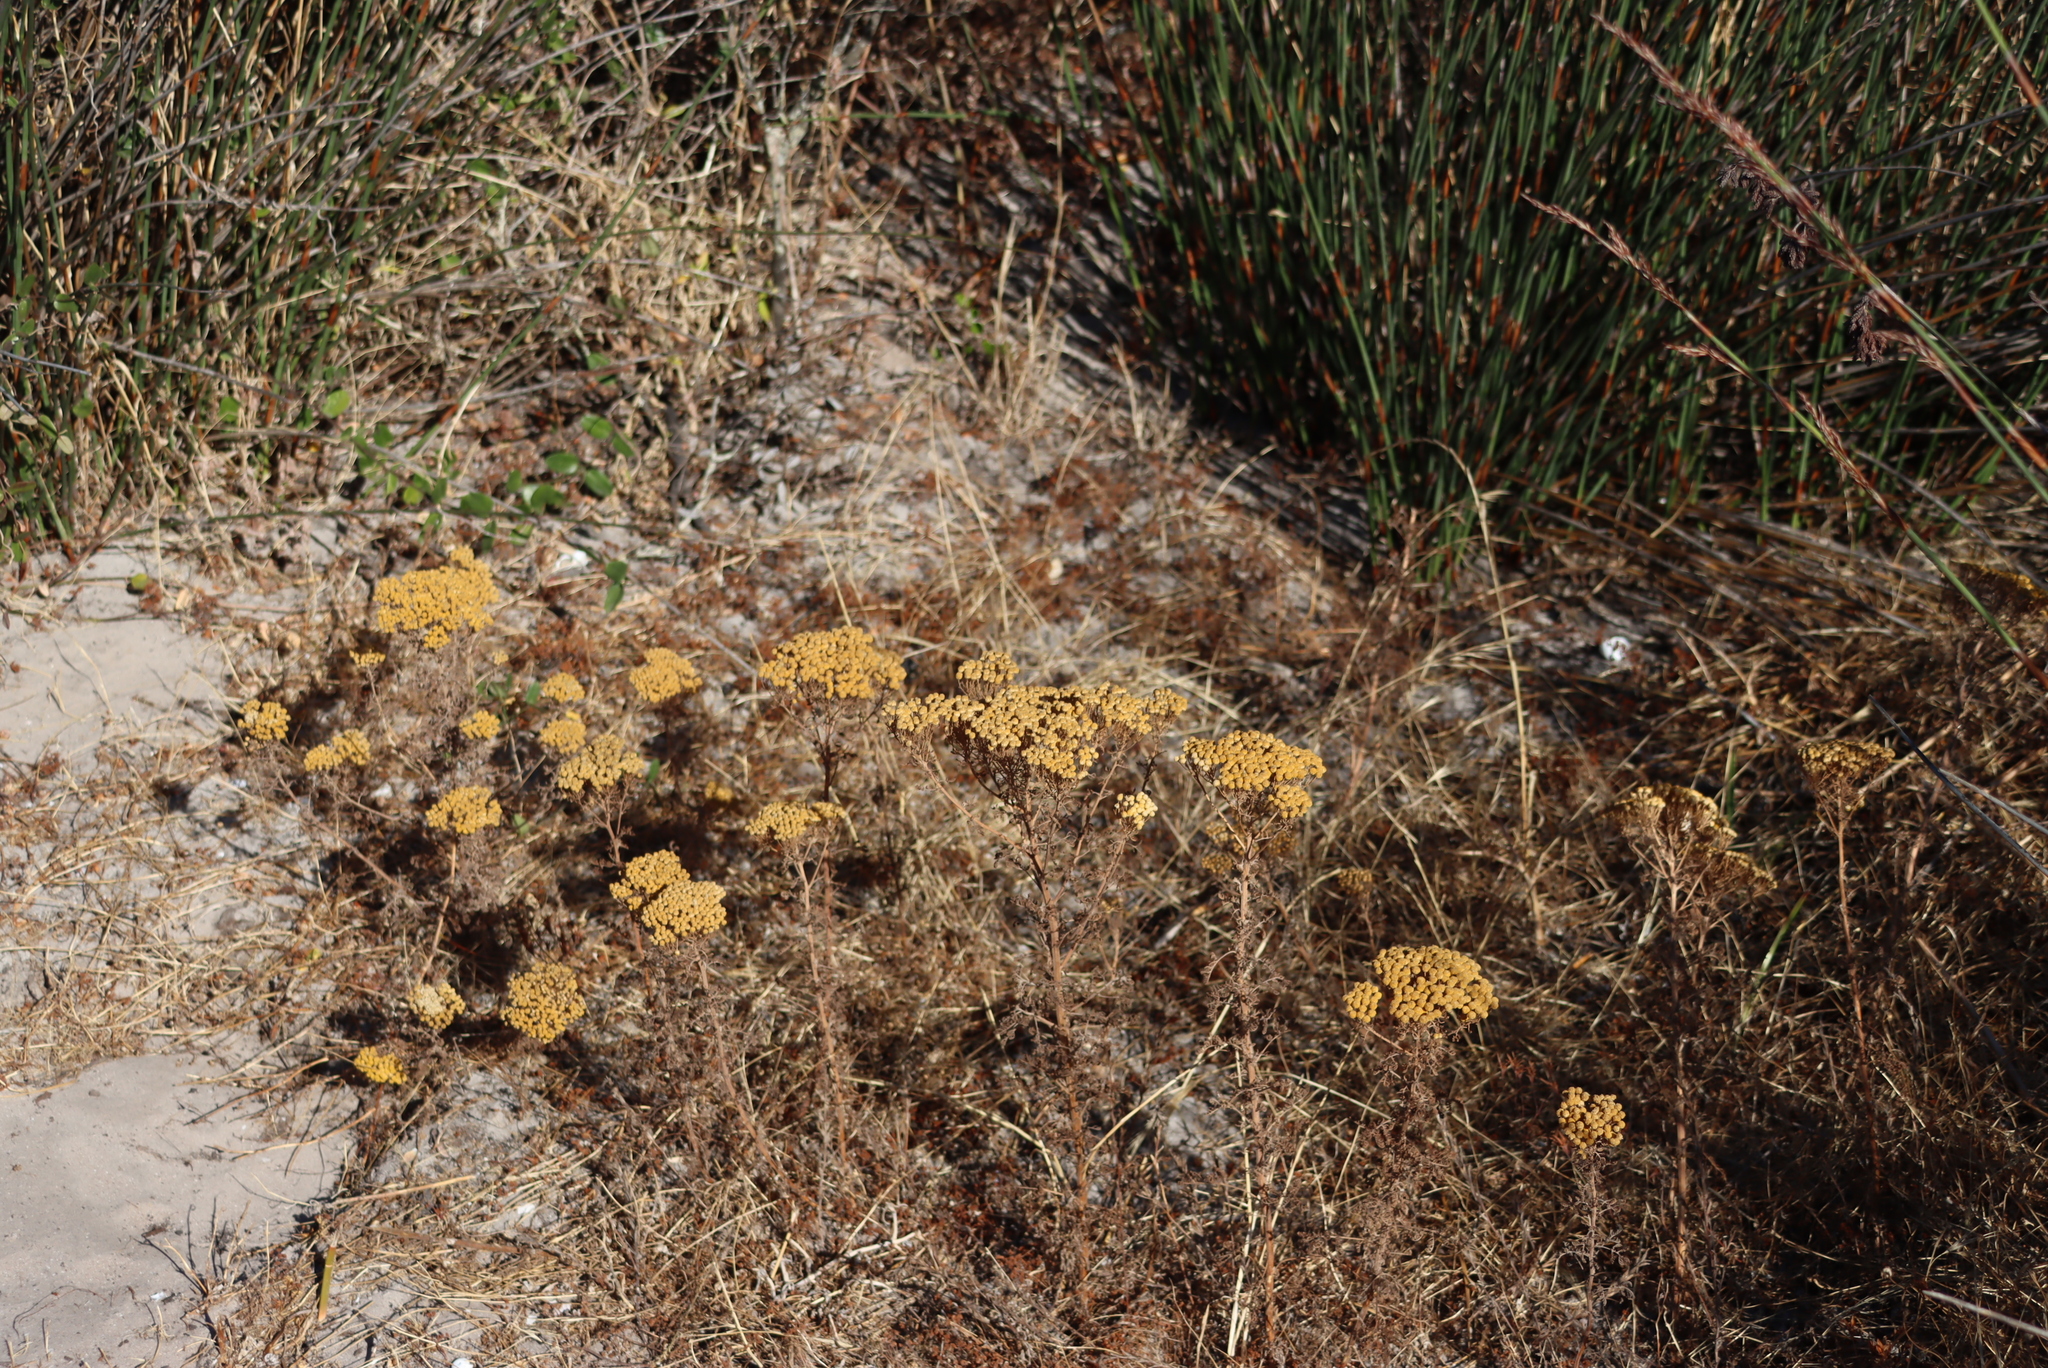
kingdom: Plantae
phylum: Tracheophyta
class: Magnoliopsida
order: Asterales
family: Asteraceae
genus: Oncosiphon
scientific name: Oncosiphon suffruticosus
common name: Shrubby mayweed
